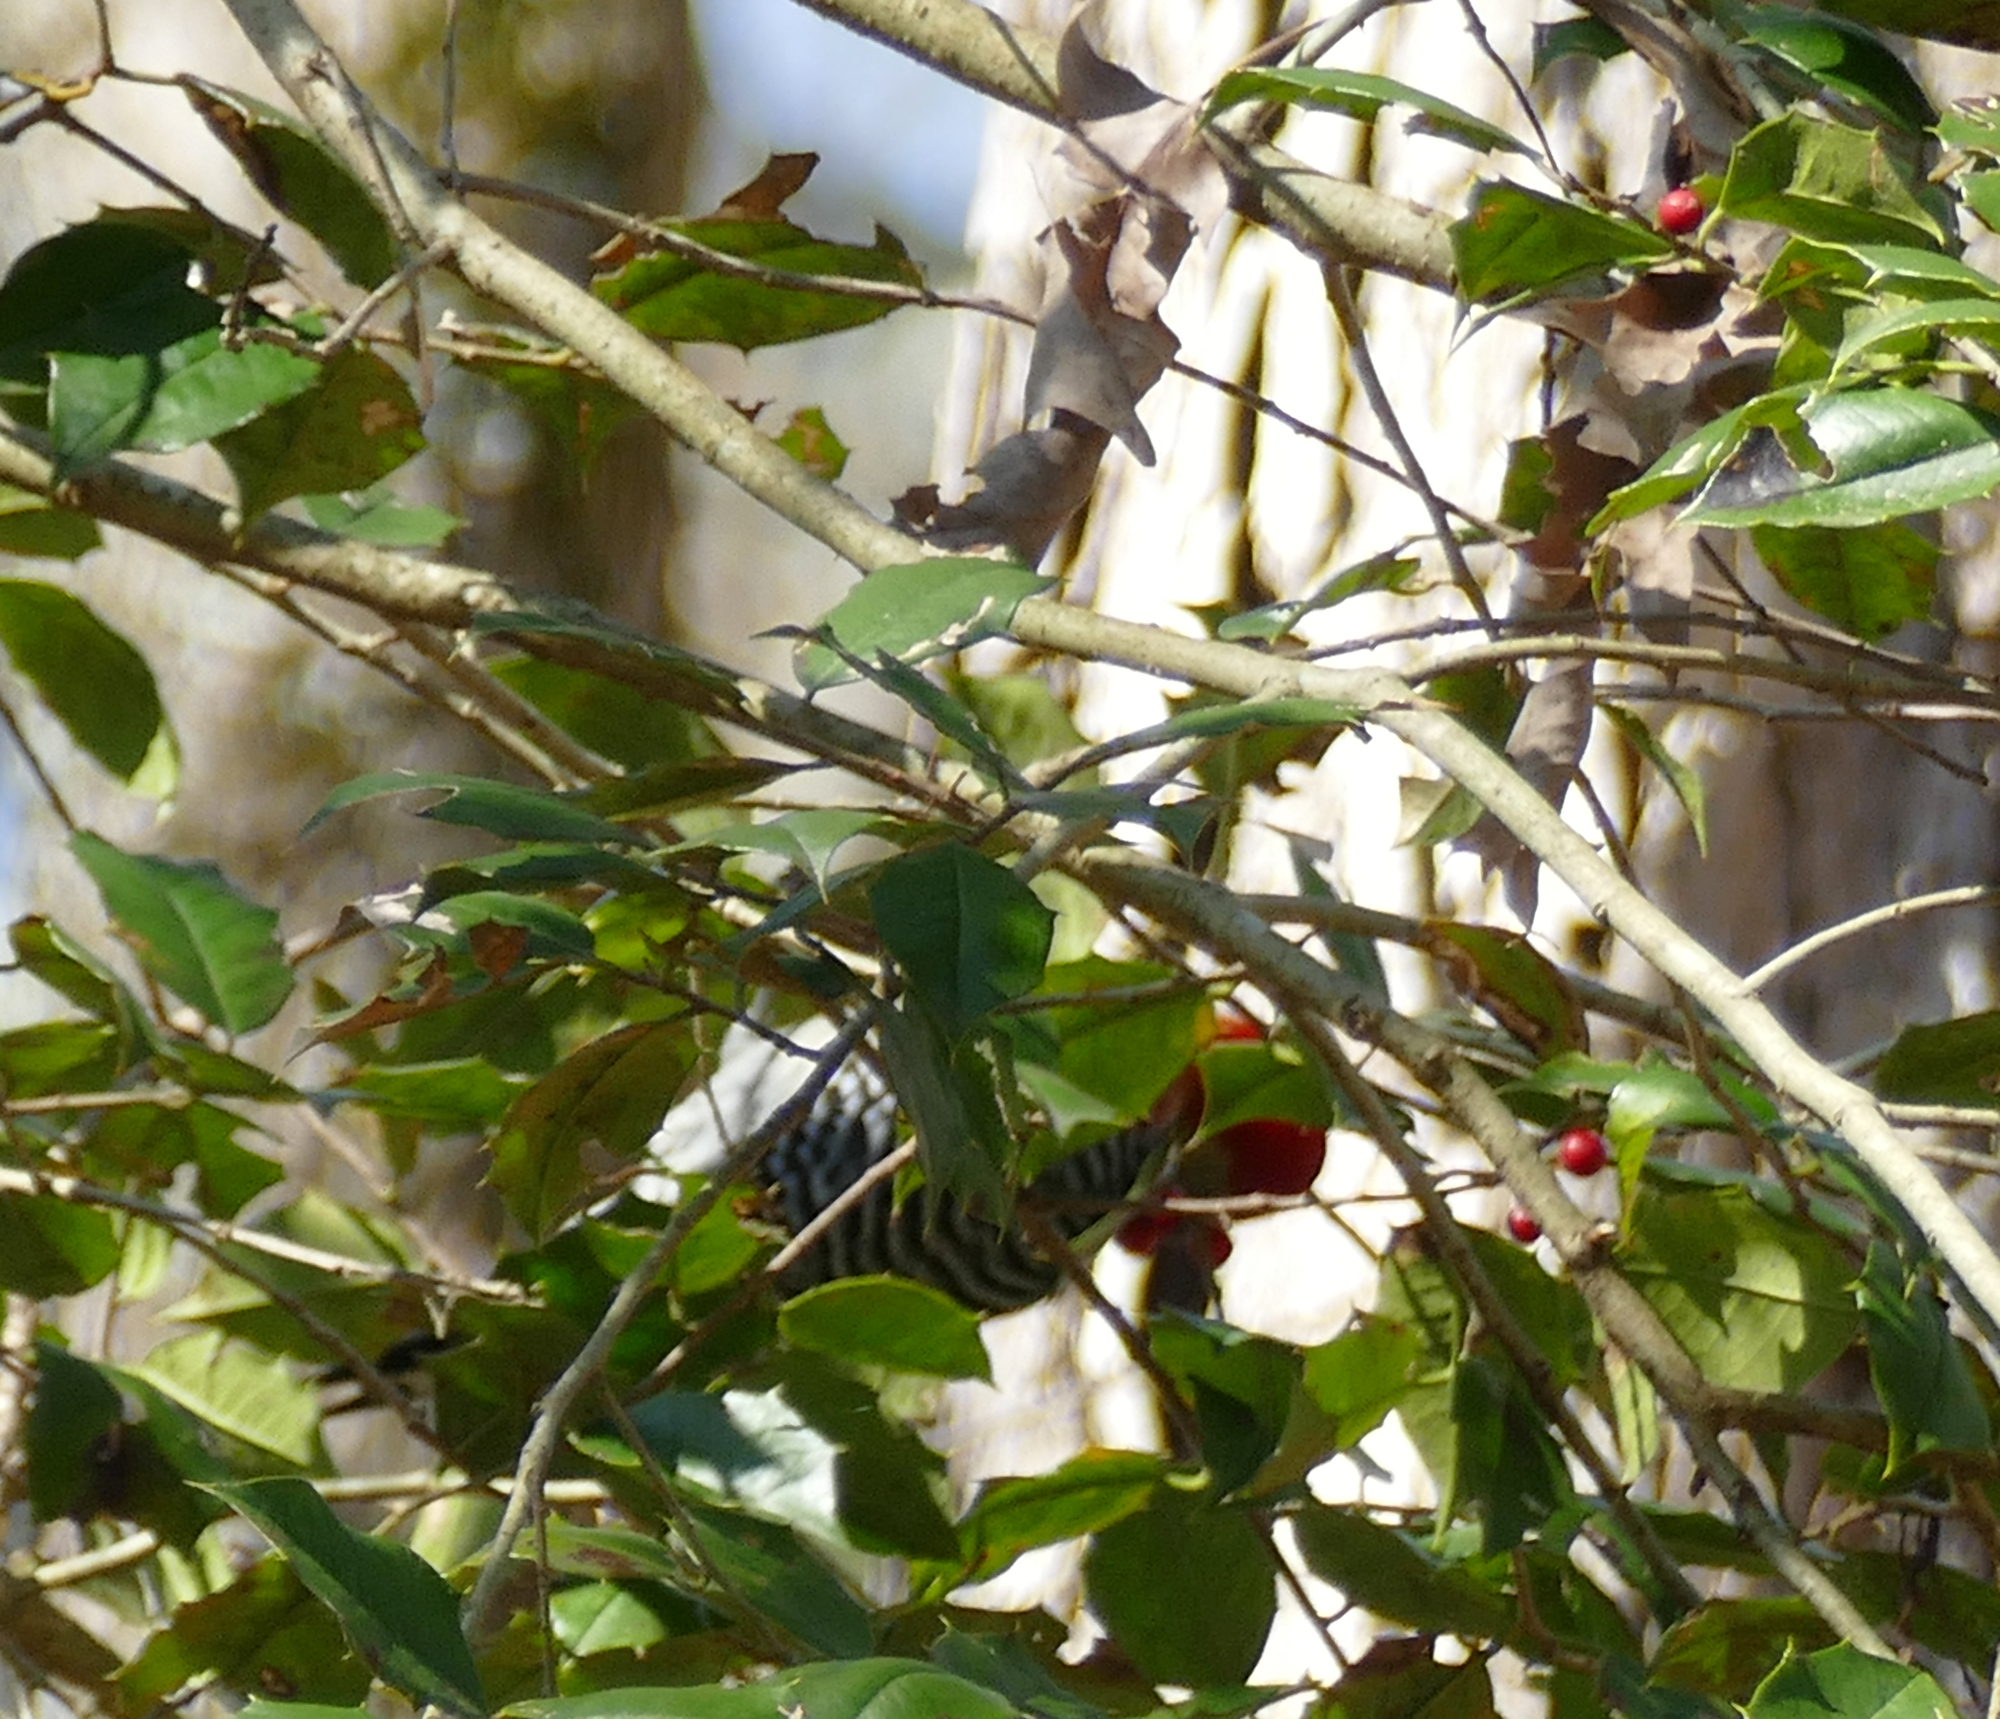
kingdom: Animalia
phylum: Chordata
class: Aves
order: Piciformes
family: Picidae
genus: Melanerpes
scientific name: Melanerpes carolinus
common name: Red-bellied woodpecker
